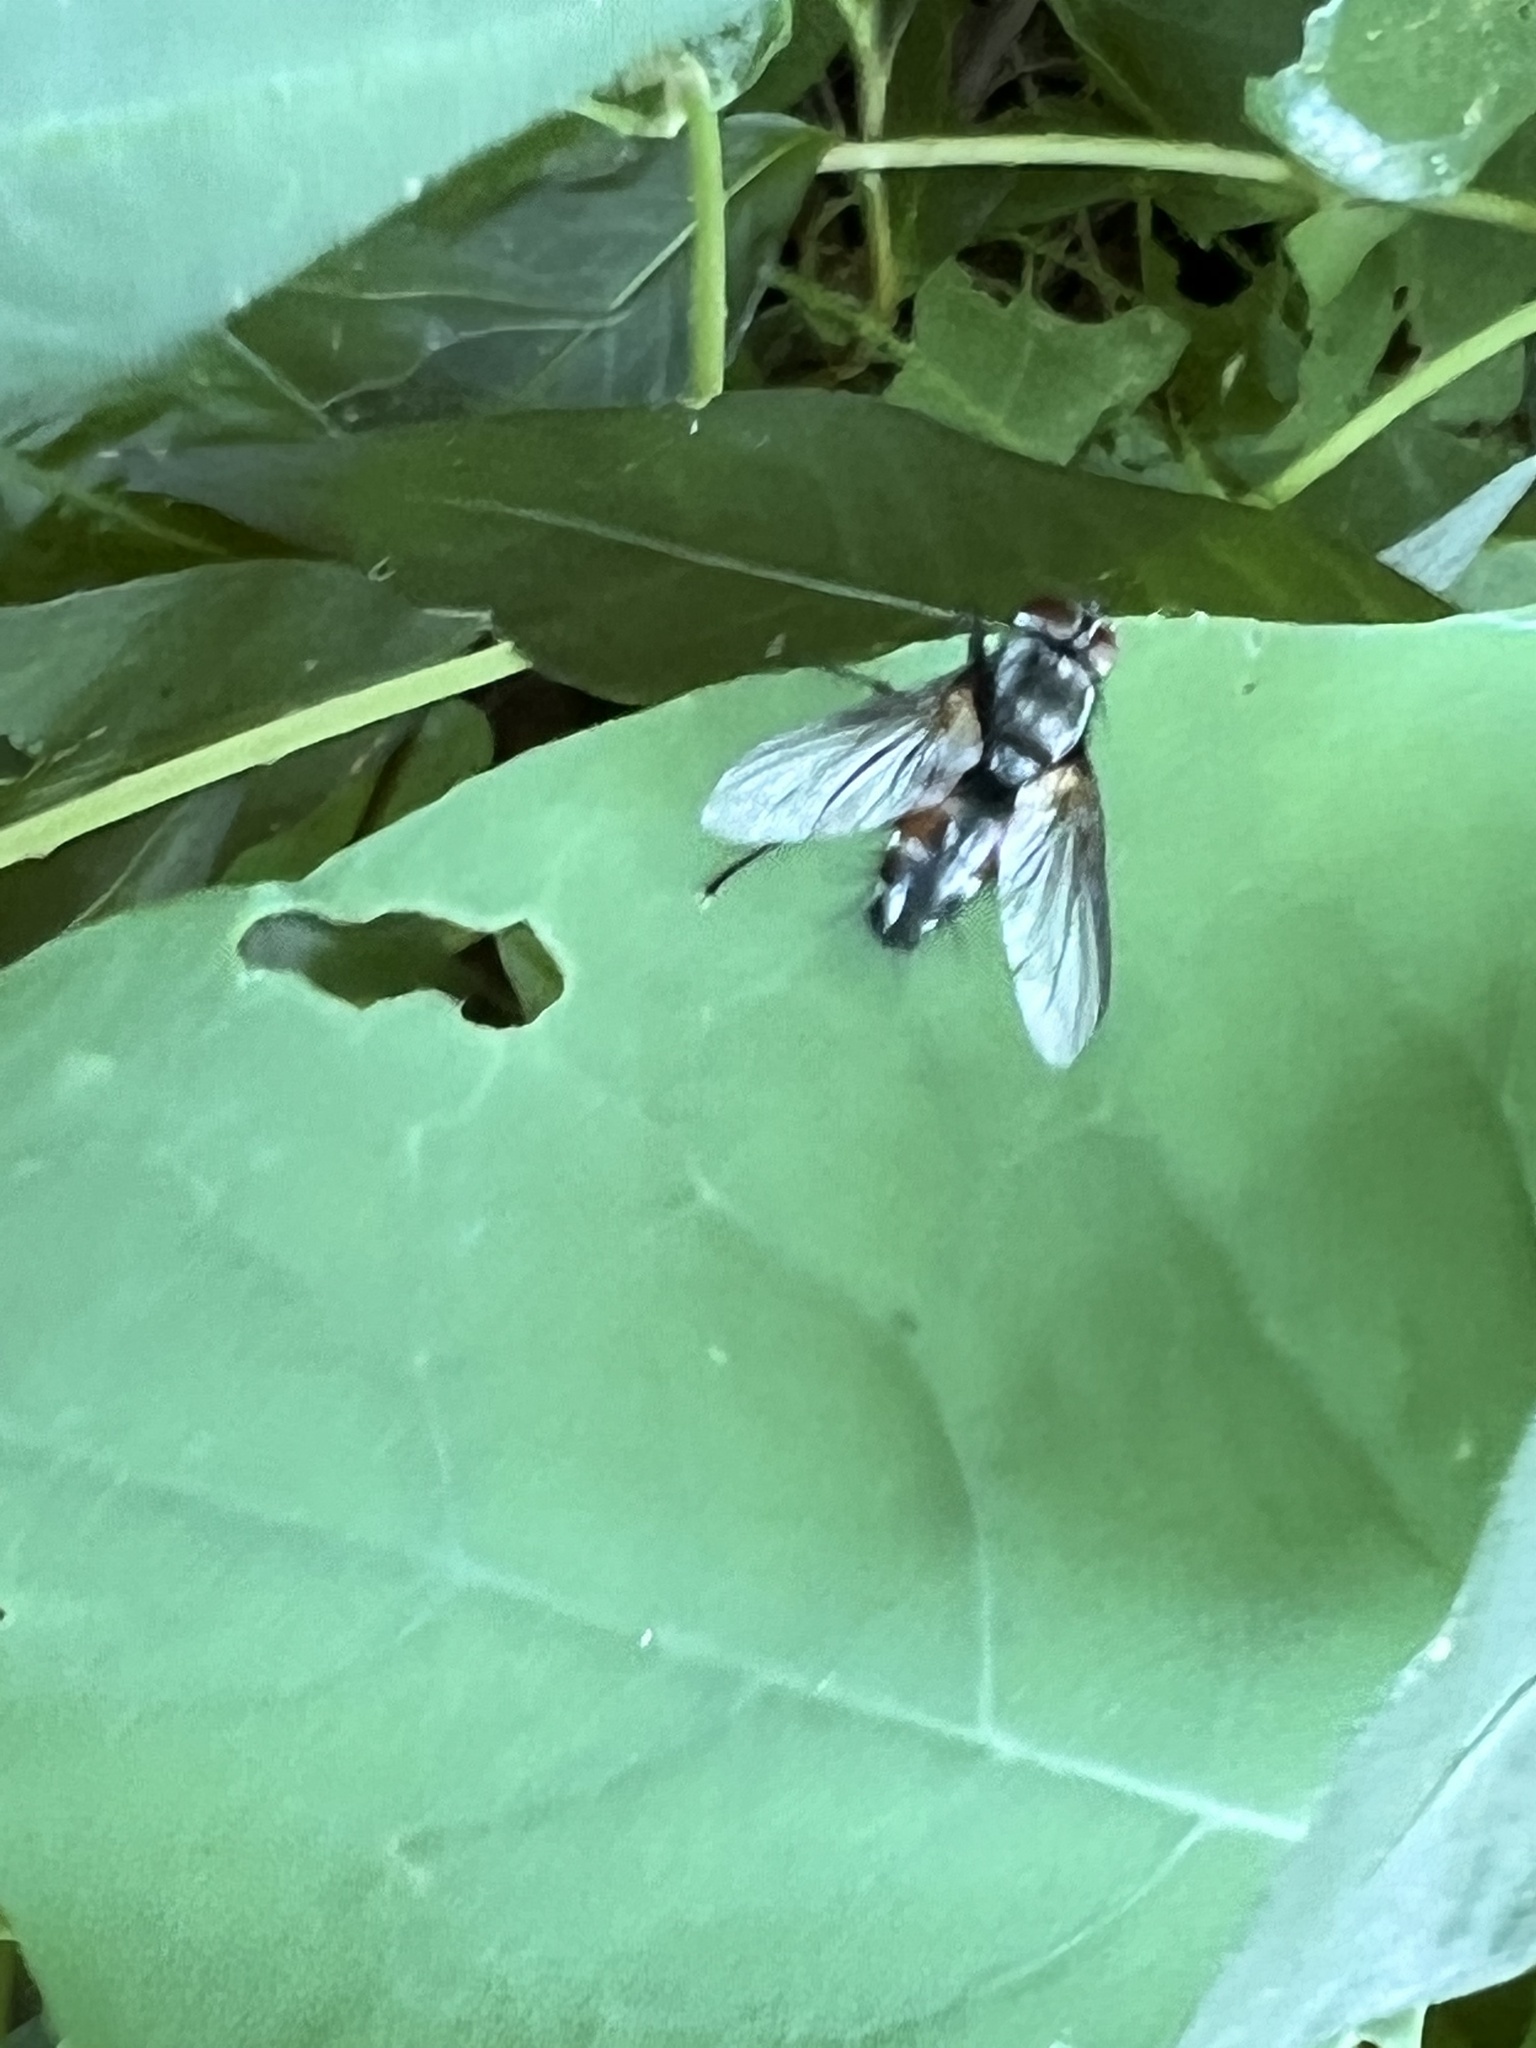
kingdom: Animalia
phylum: Arthropoda
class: Insecta
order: Diptera
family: Tachinidae
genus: Thelaira
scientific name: Thelaira americana
